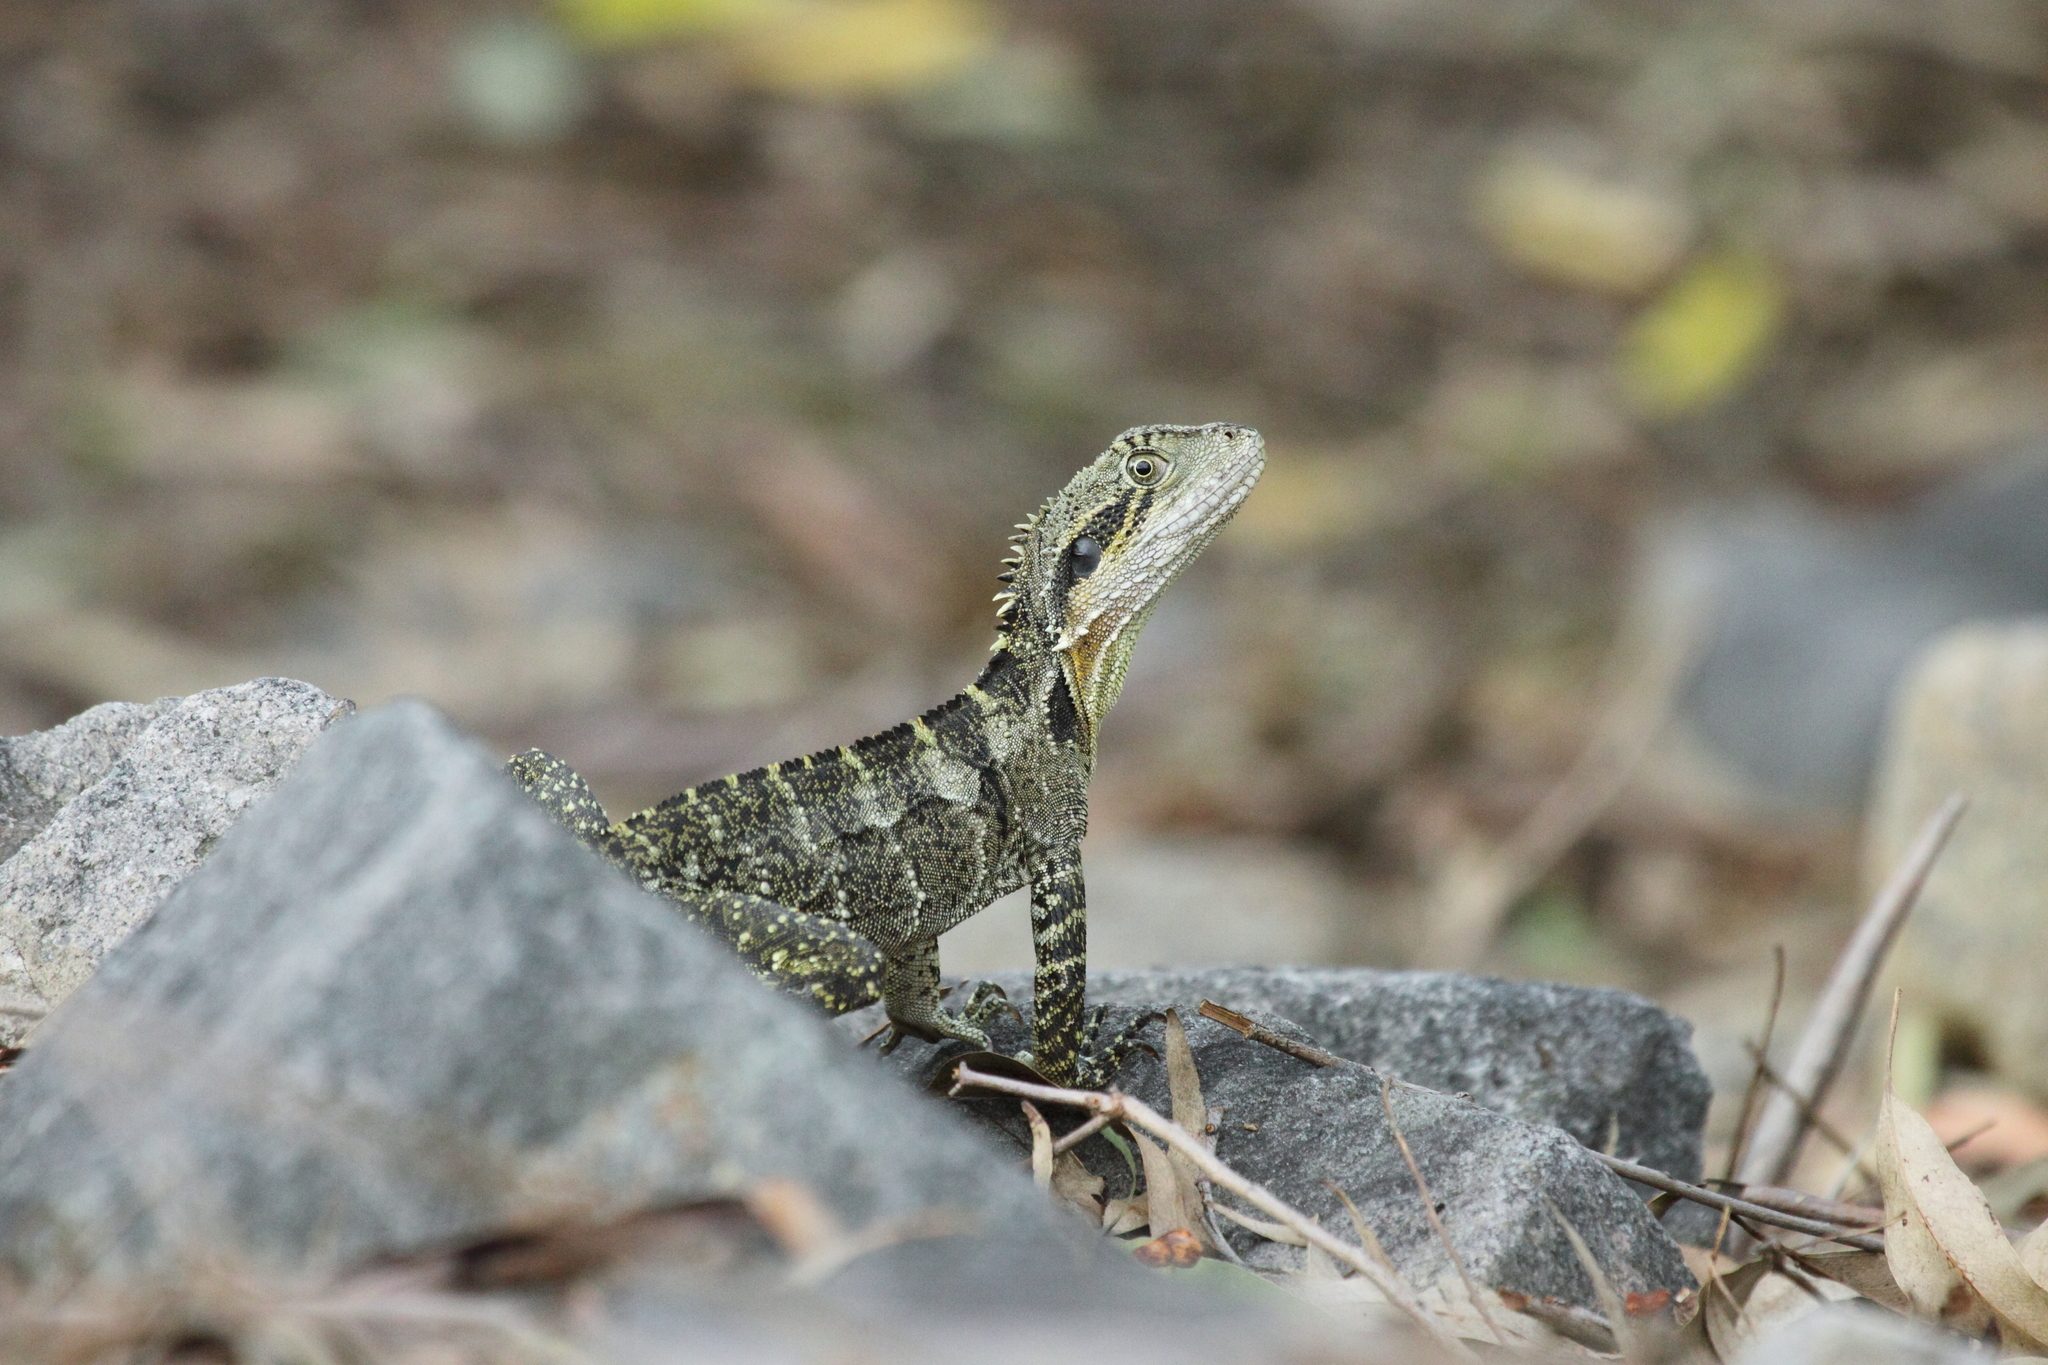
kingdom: Animalia
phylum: Chordata
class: Squamata
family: Agamidae
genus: Intellagama
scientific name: Intellagama lesueurii
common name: Eastern water dragon
